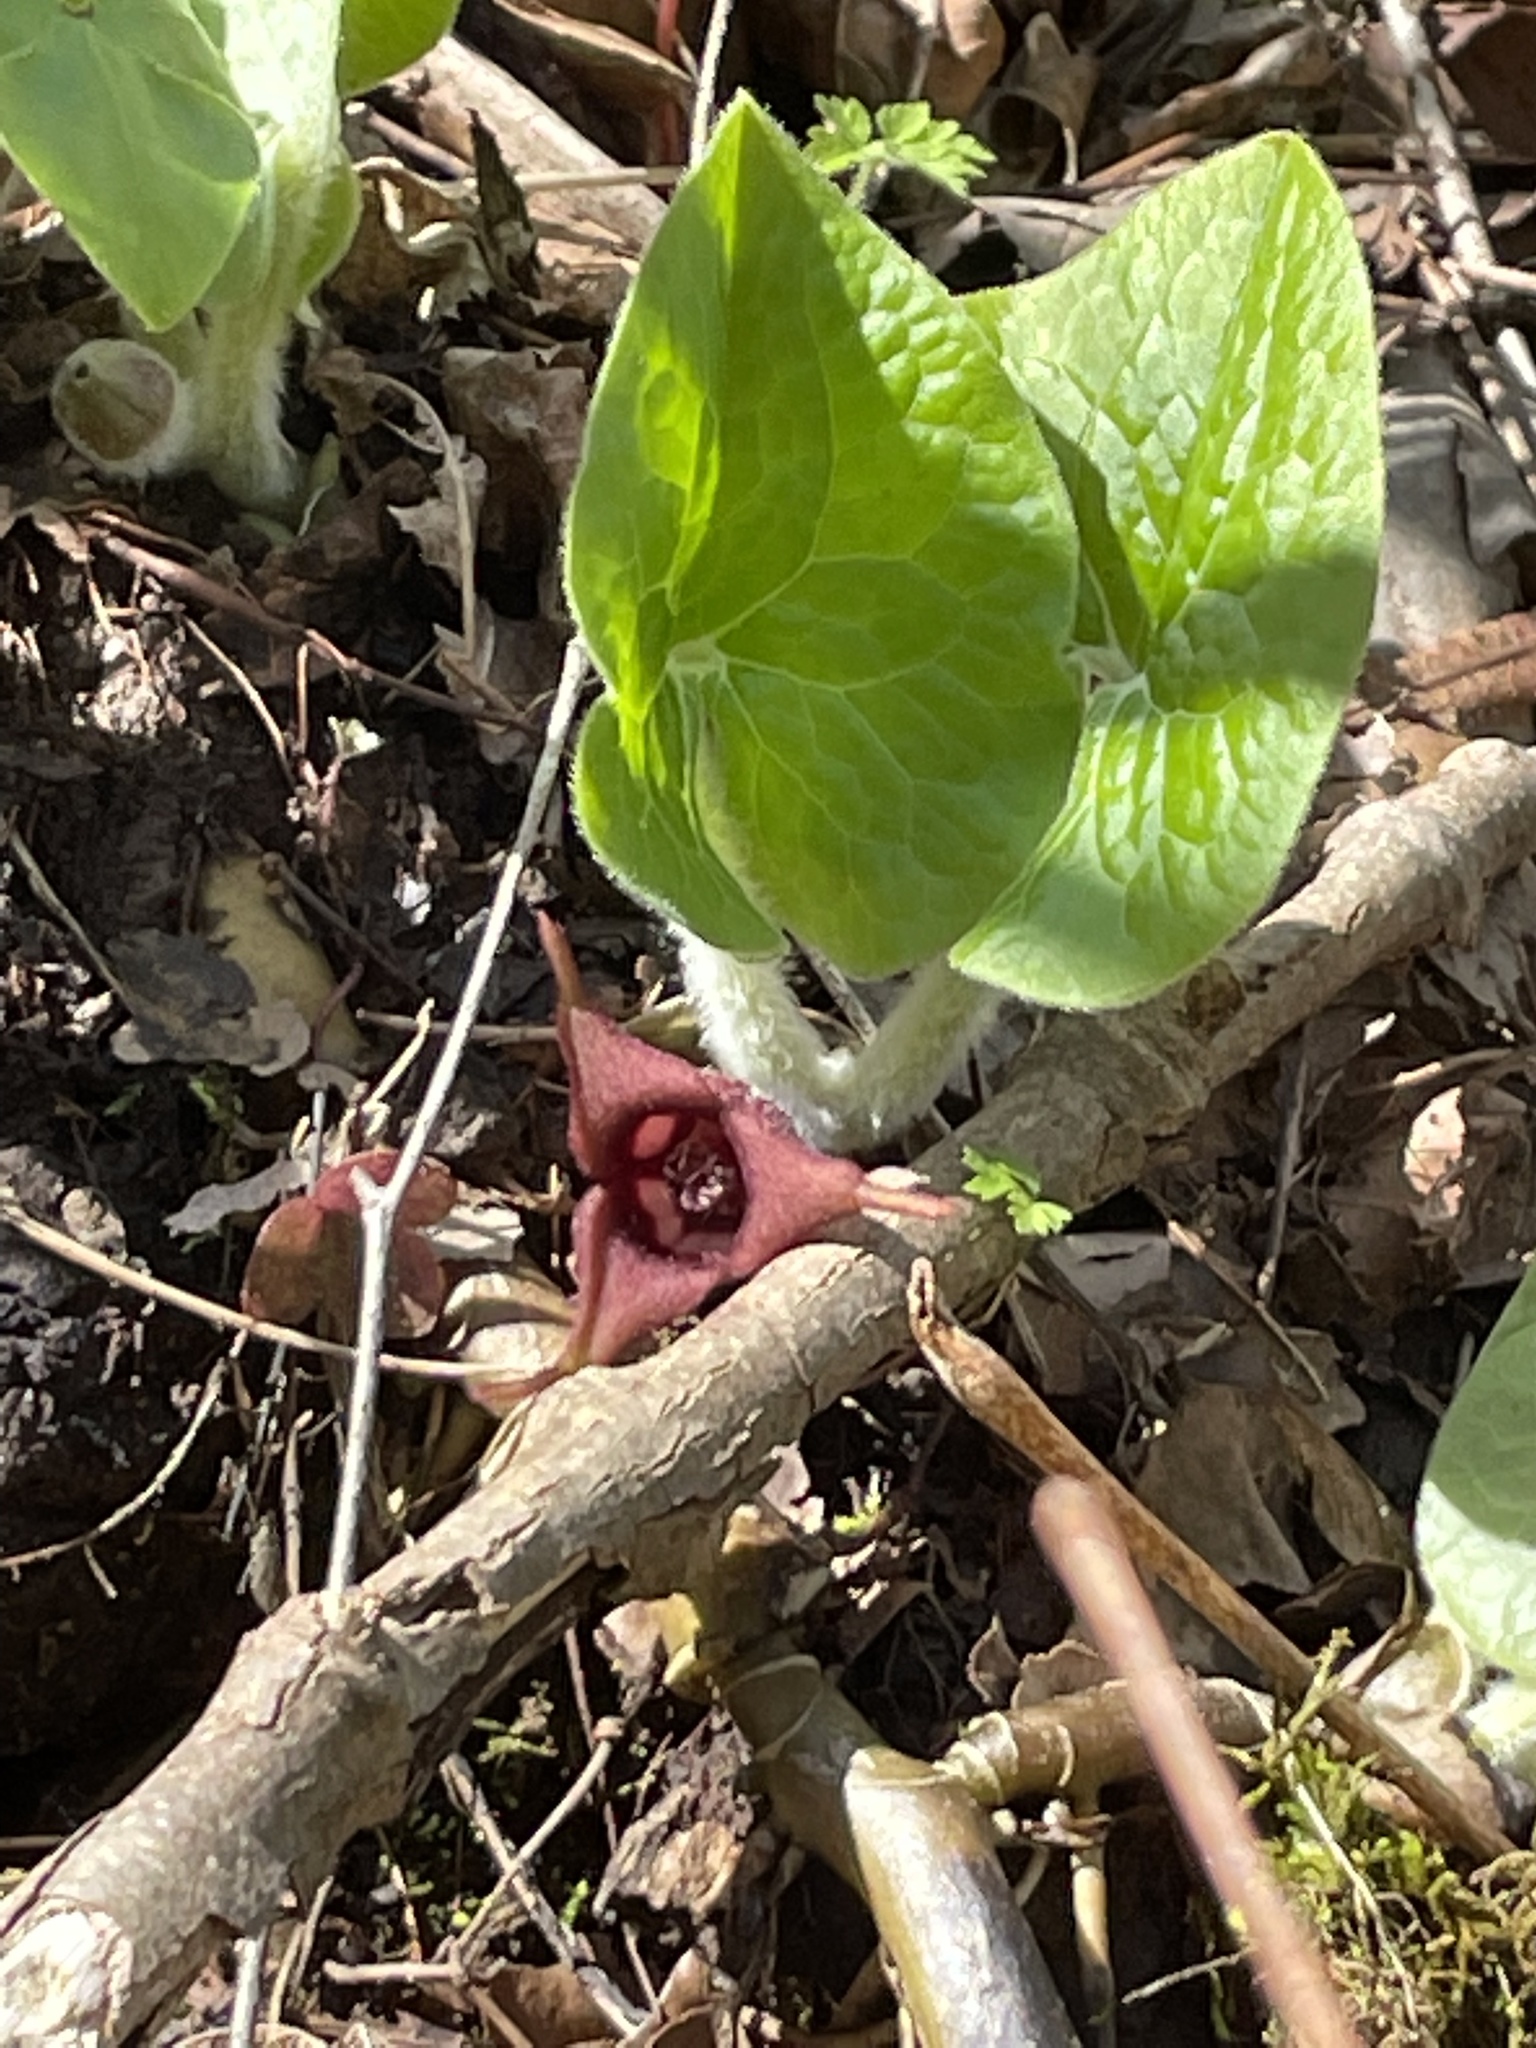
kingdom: Plantae
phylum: Tracheophyta
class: Magnoliopsida
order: Piperales
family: Aristolochiaceae
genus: Asarum
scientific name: Asarum canadense
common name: Wild ginger
